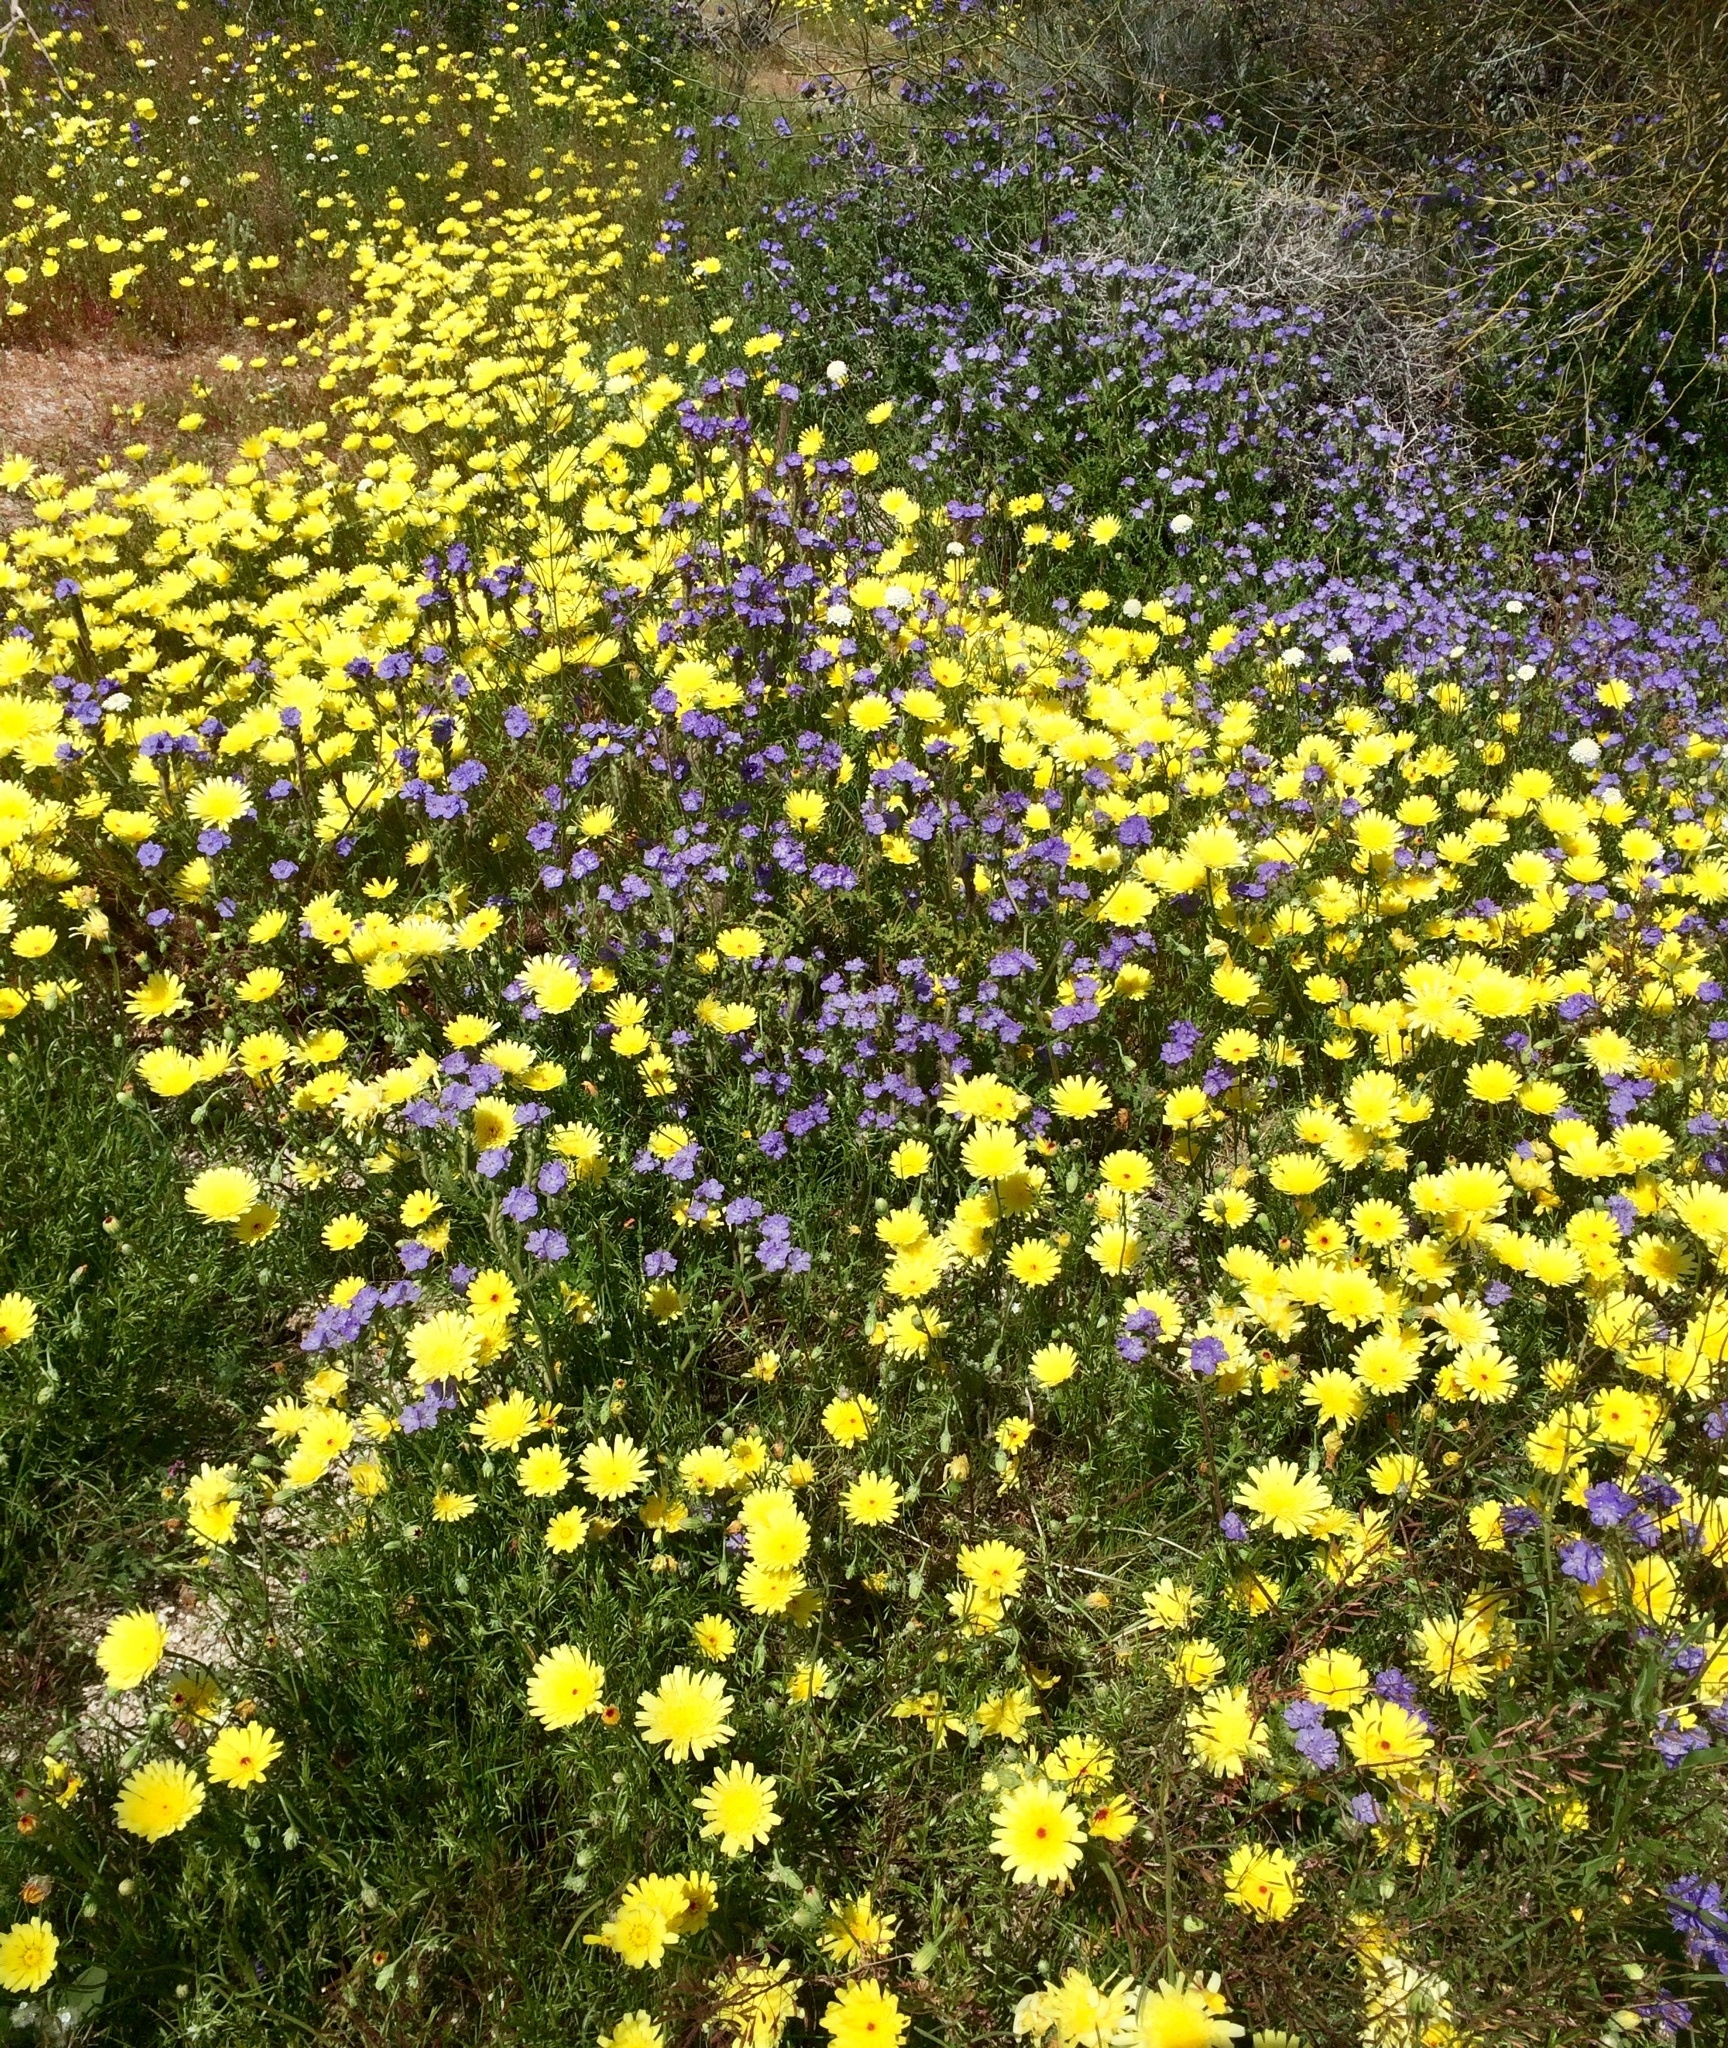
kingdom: Plantae
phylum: Tracheophyta
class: Magnoliopsida
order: Asterales
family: Asteraceae
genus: Malacothrix
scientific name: Malacothrix glabrata
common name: Smooth desert-dandelion
